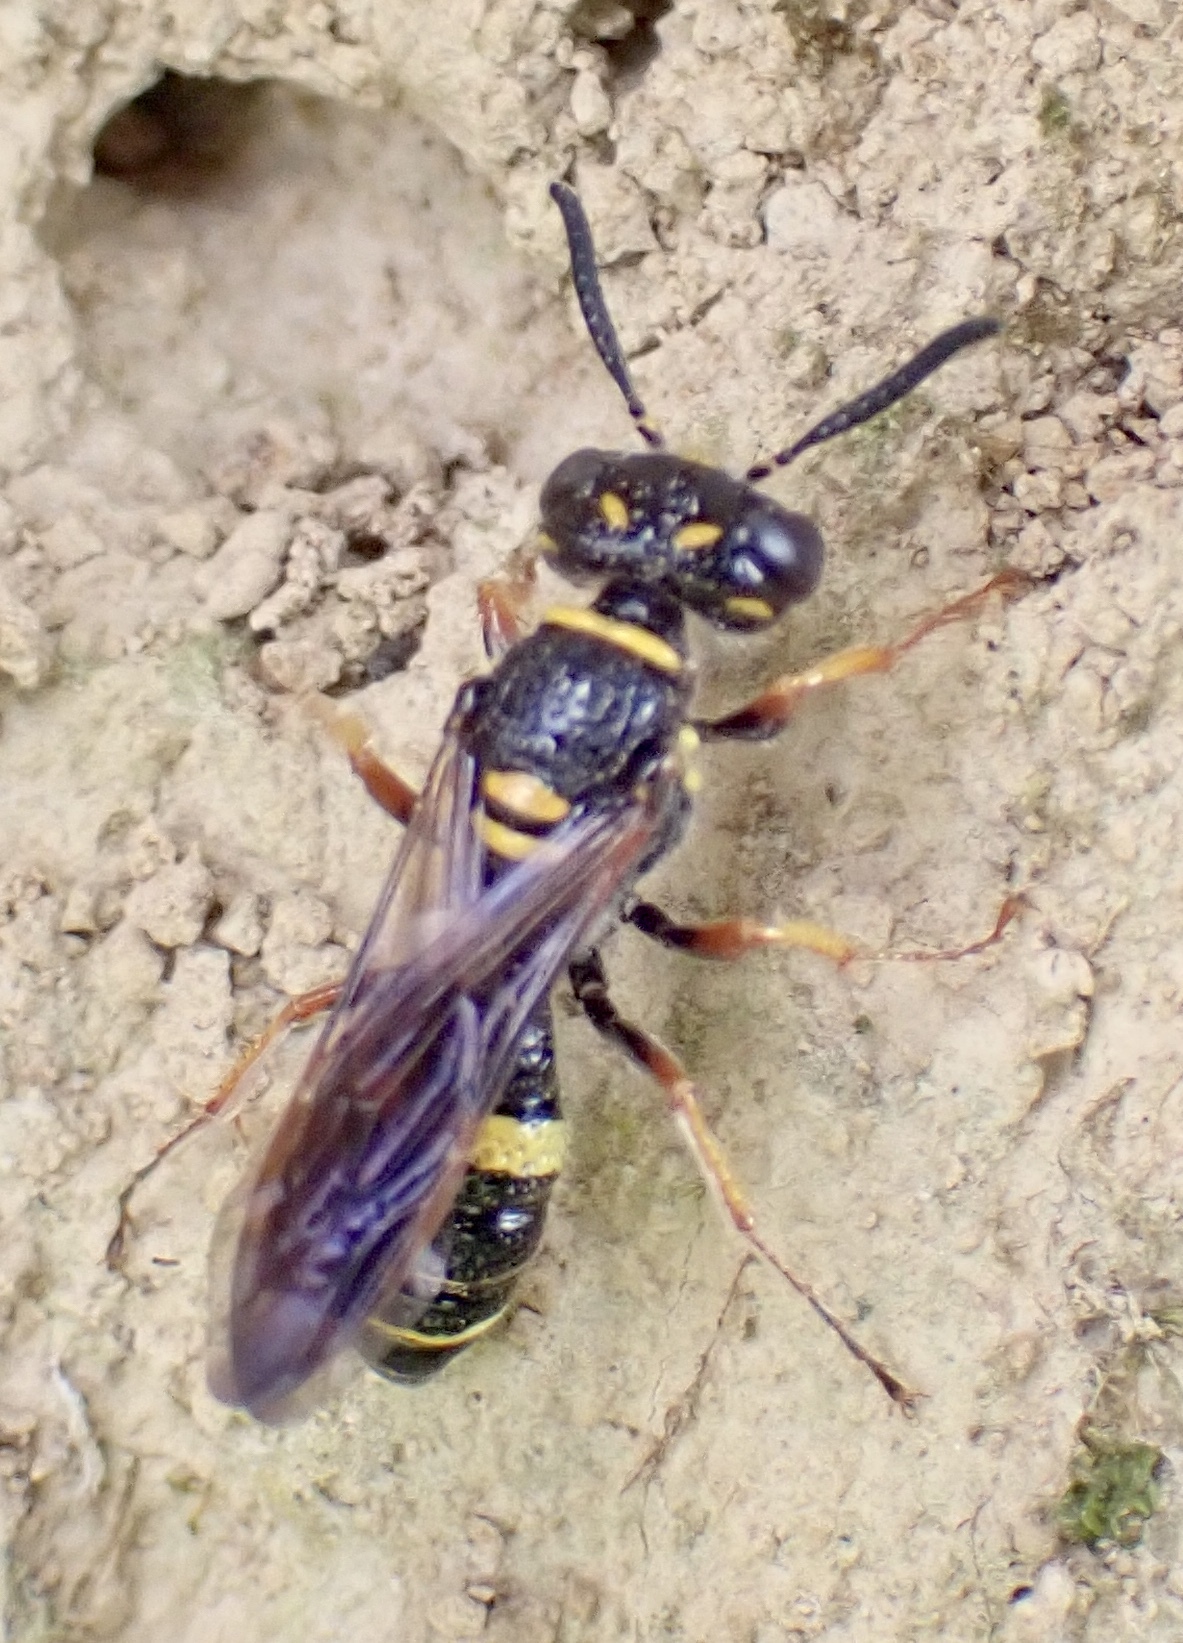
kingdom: Animalia
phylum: Arthropoda
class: Insecta
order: Hymenoptera
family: Crabronidae
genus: Philanthus
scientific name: Philanthus gibbosus
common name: Humped beewolf
